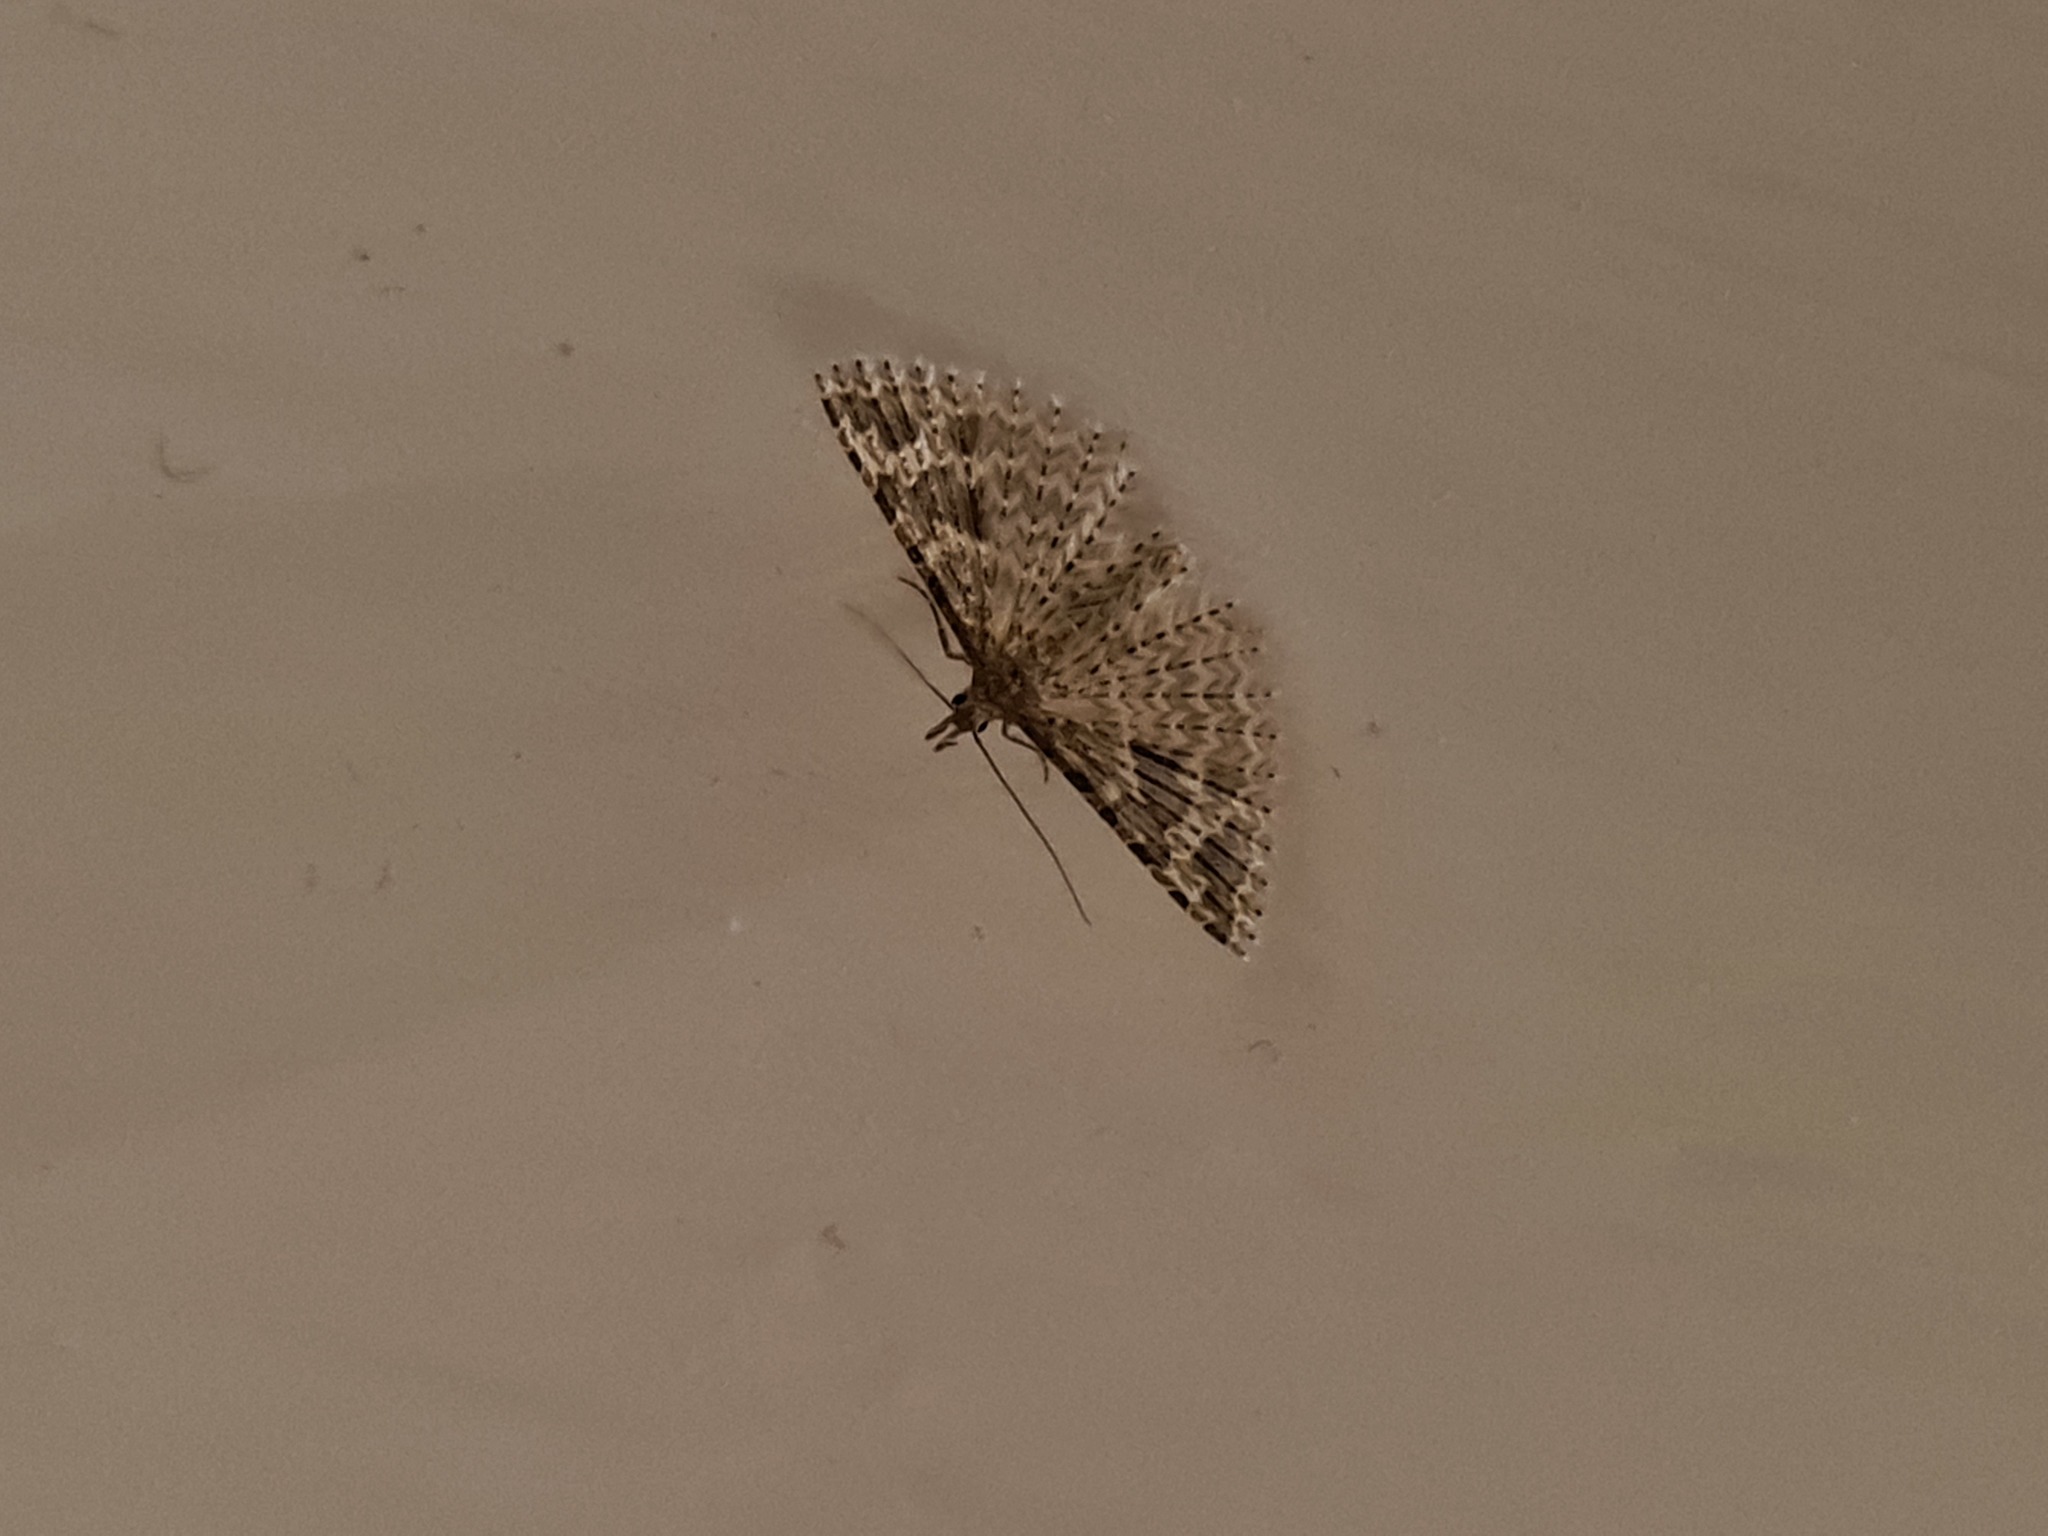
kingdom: Animalia
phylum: Arthropoda
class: Insecta
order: Lepidoptera
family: Alucitidae
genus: Alucita
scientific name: Alucita hexadactyla
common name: Twenty-plume moth
